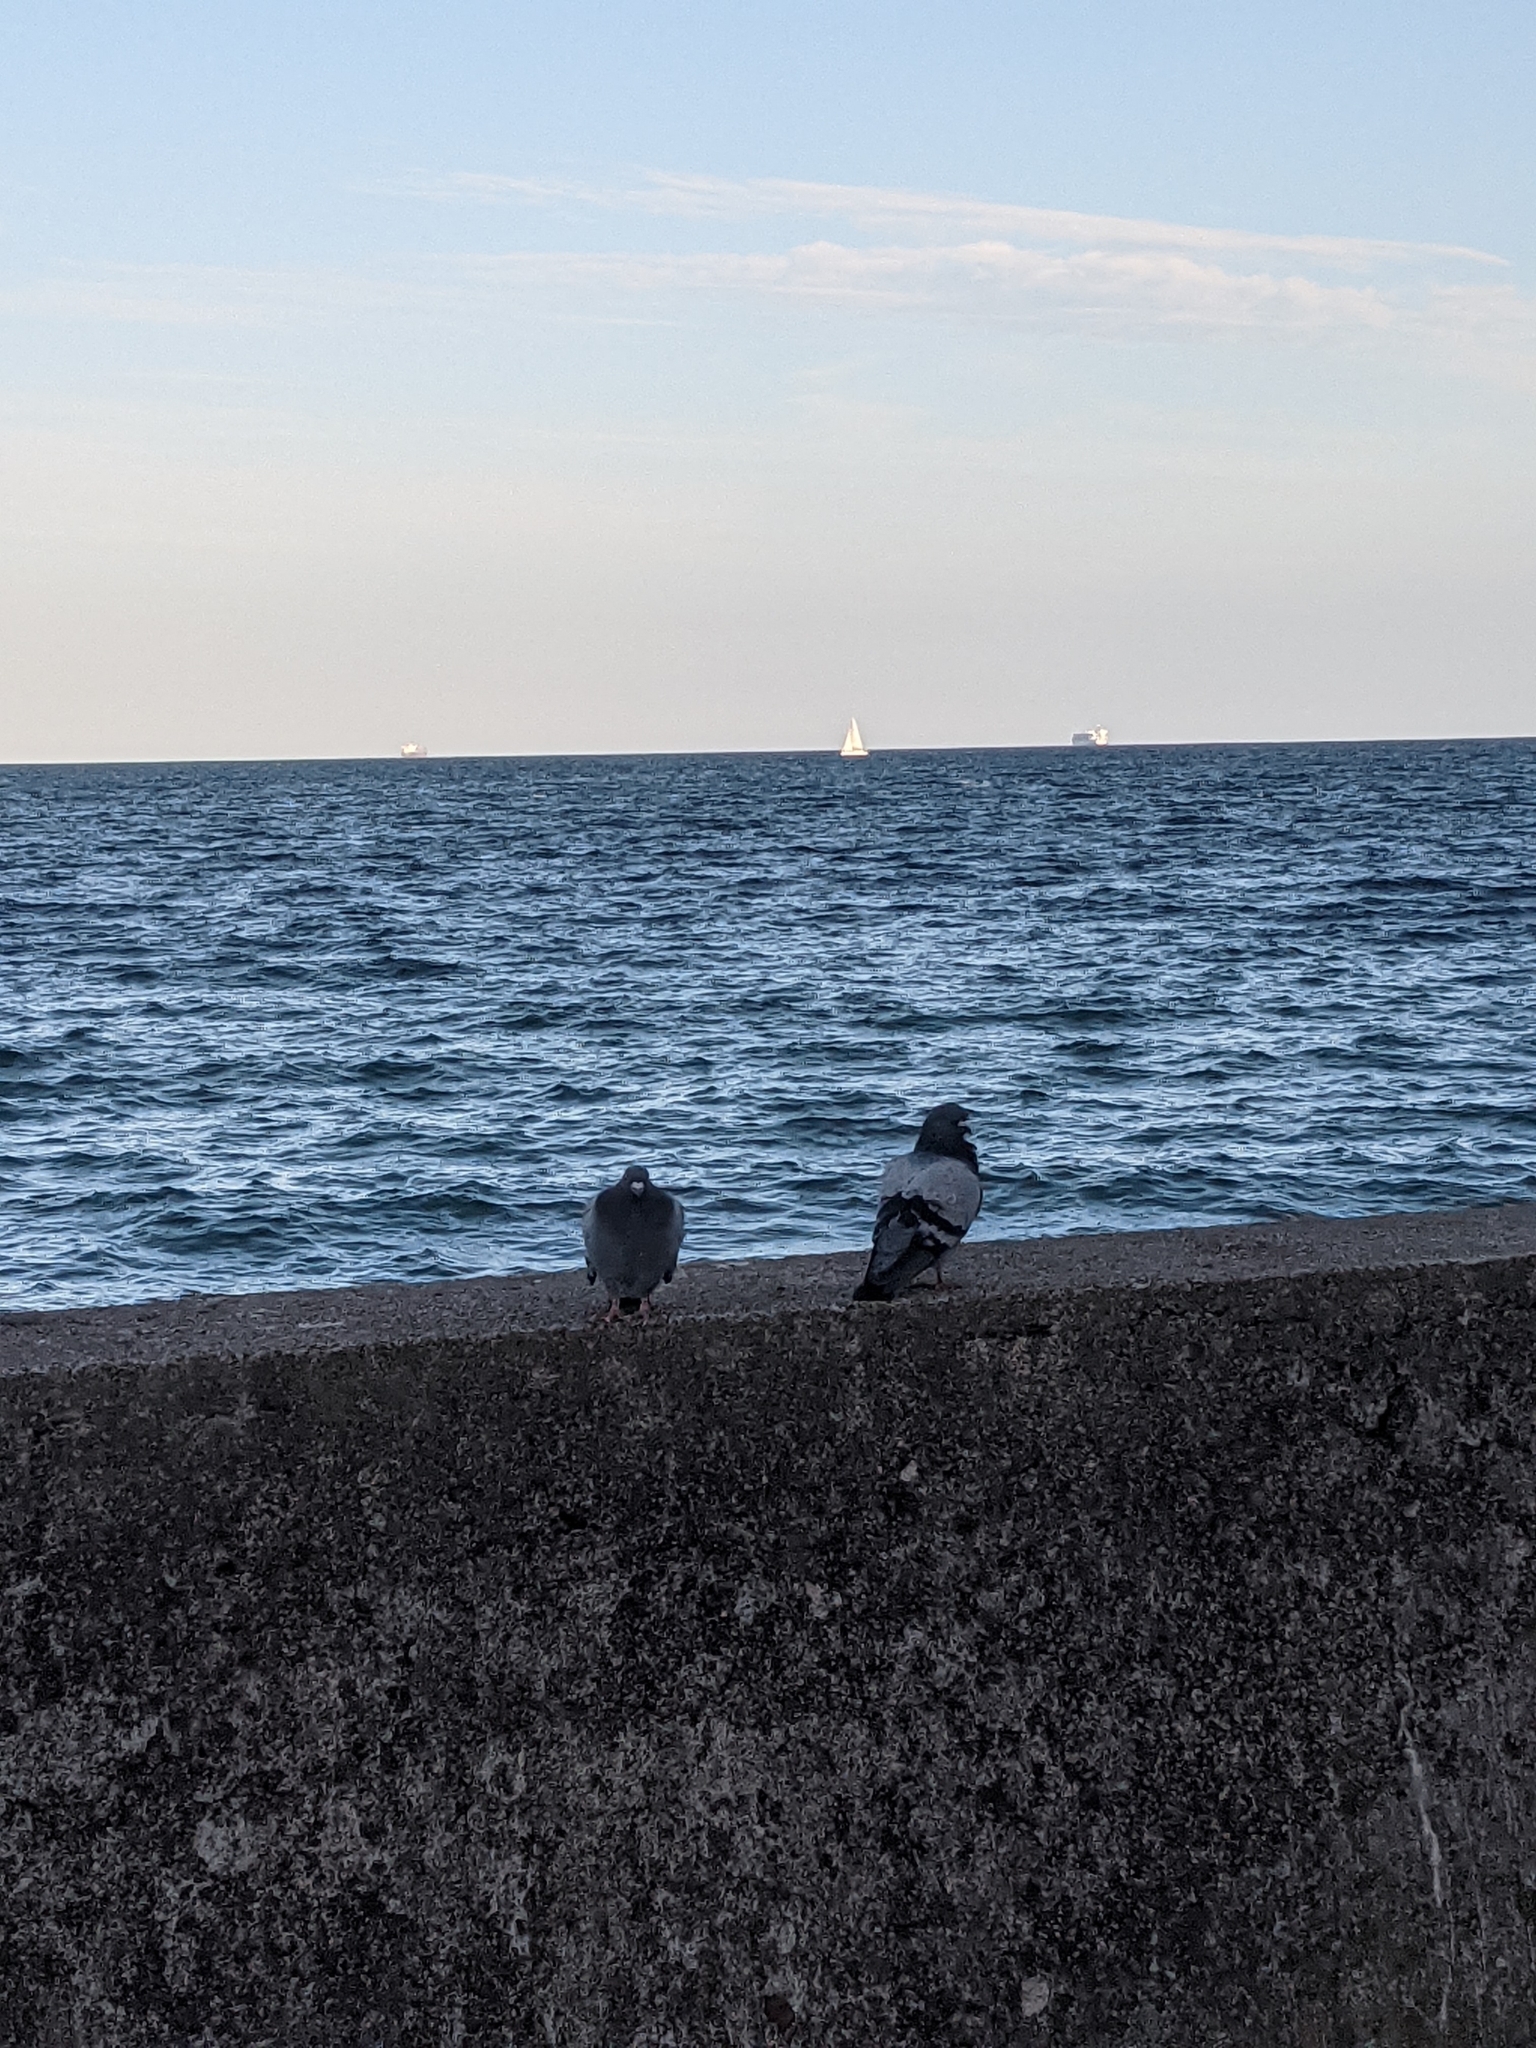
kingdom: Animalia
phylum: Chordata
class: Aves
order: Columbiformes
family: Columbidae
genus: Columba
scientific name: Columba livia
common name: Rock pigeon
